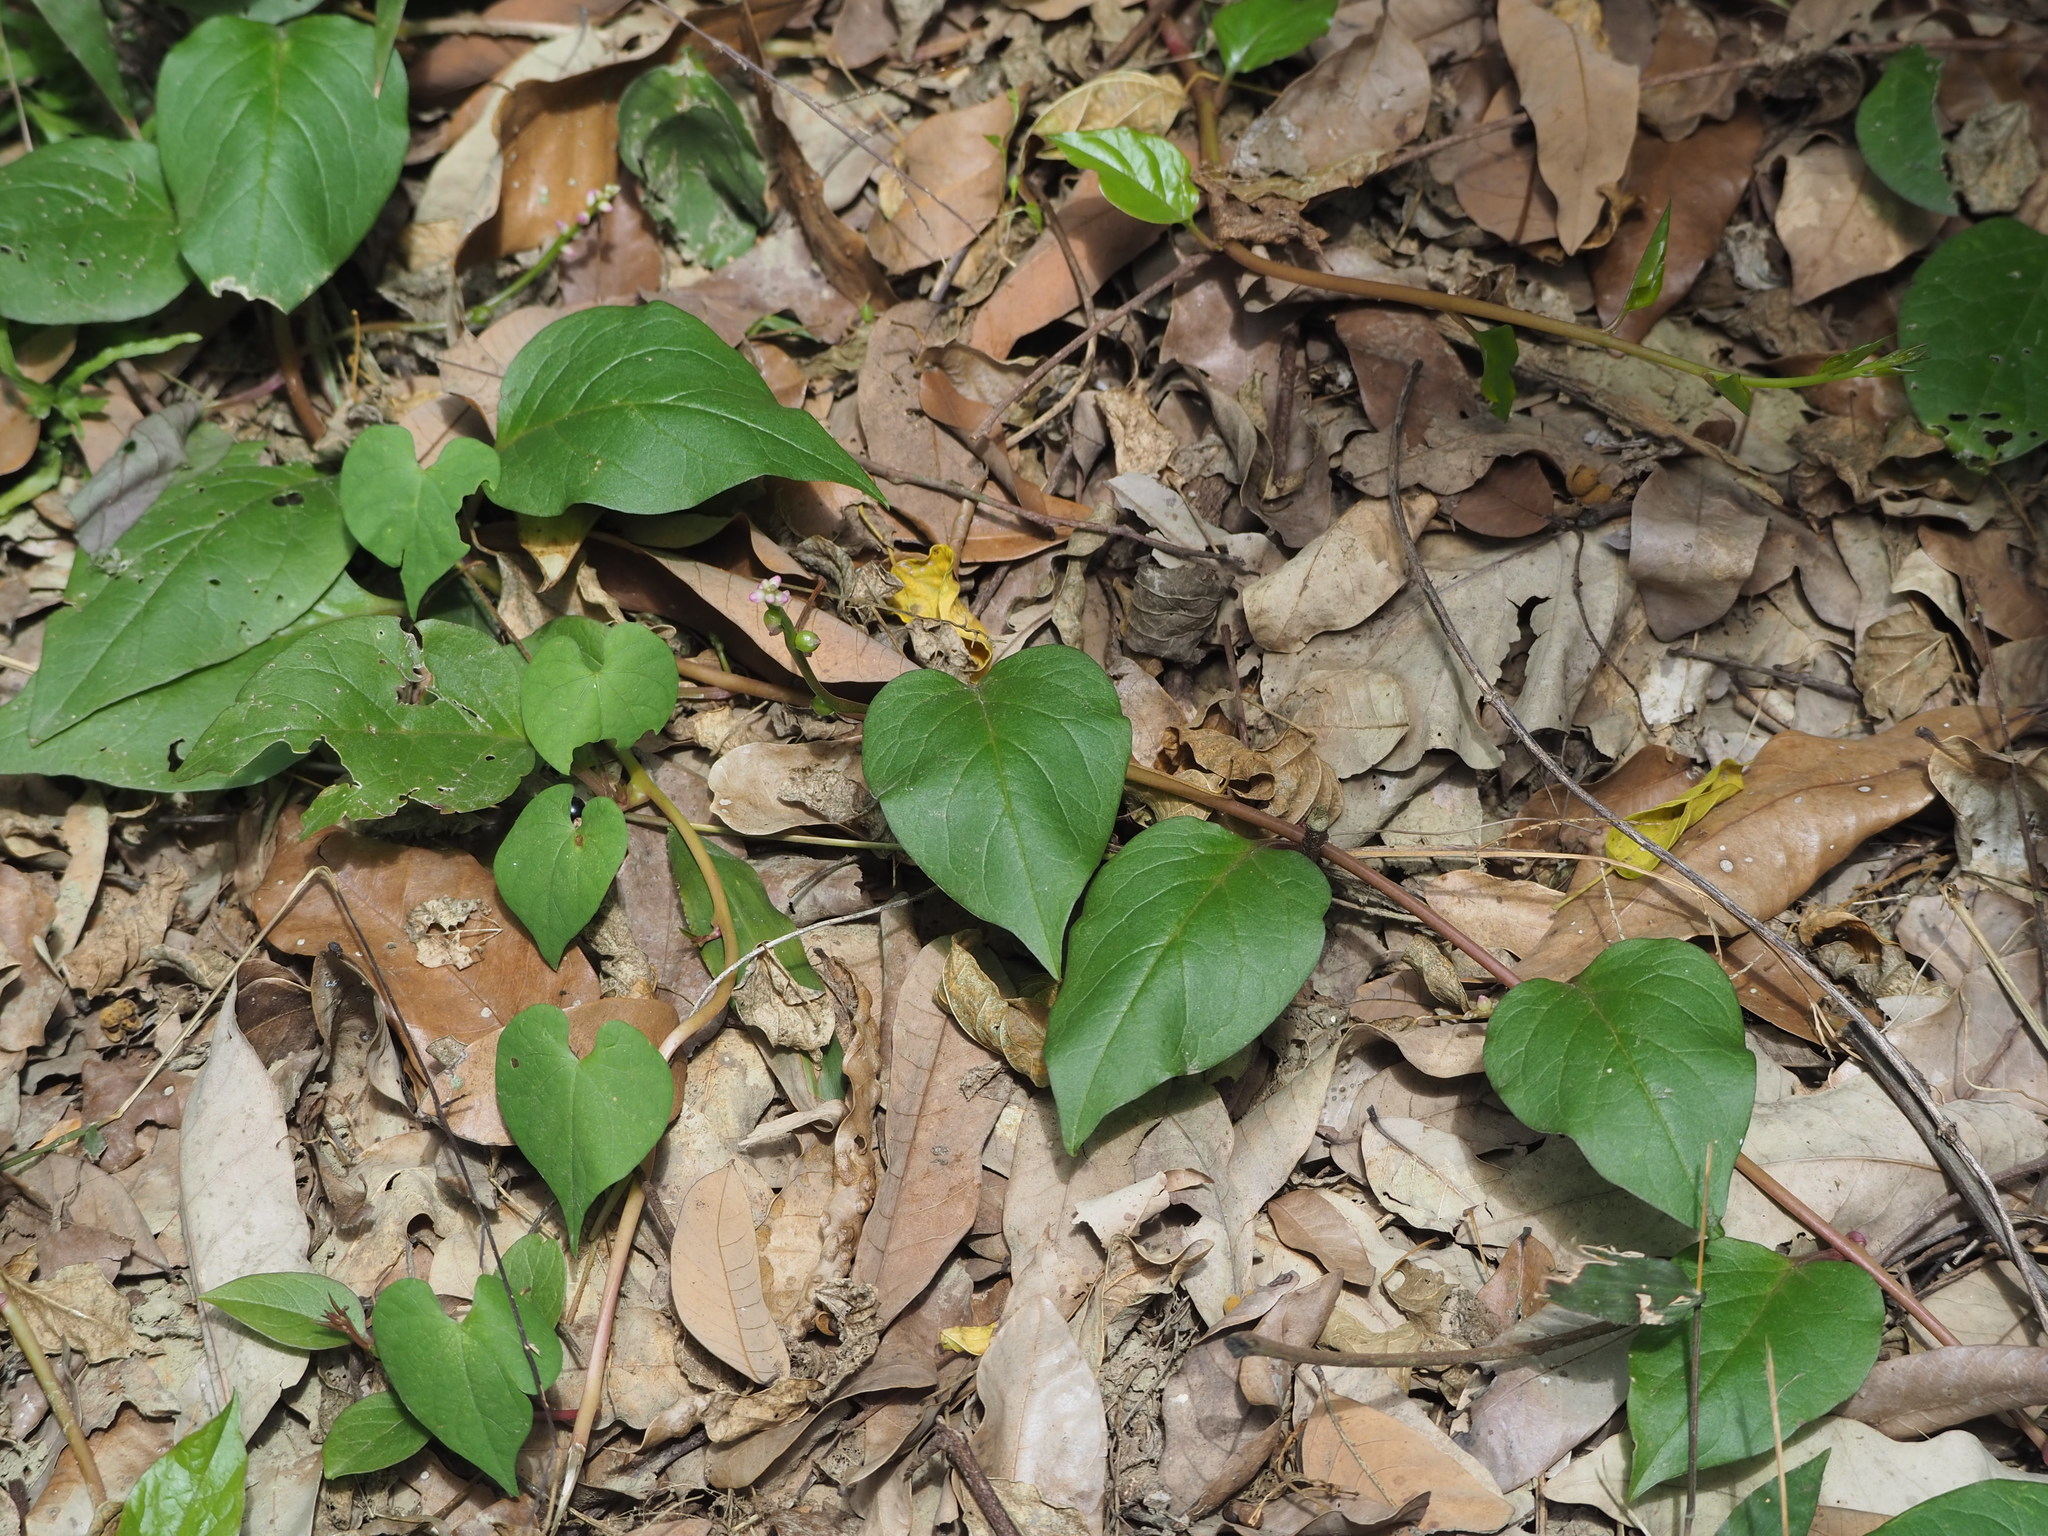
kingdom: Plantae
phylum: Tracheophyta
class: Magnoliopsida
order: Caryophyllales
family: Basellaceae
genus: Basella
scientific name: Basella alba
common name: Indian spinach
